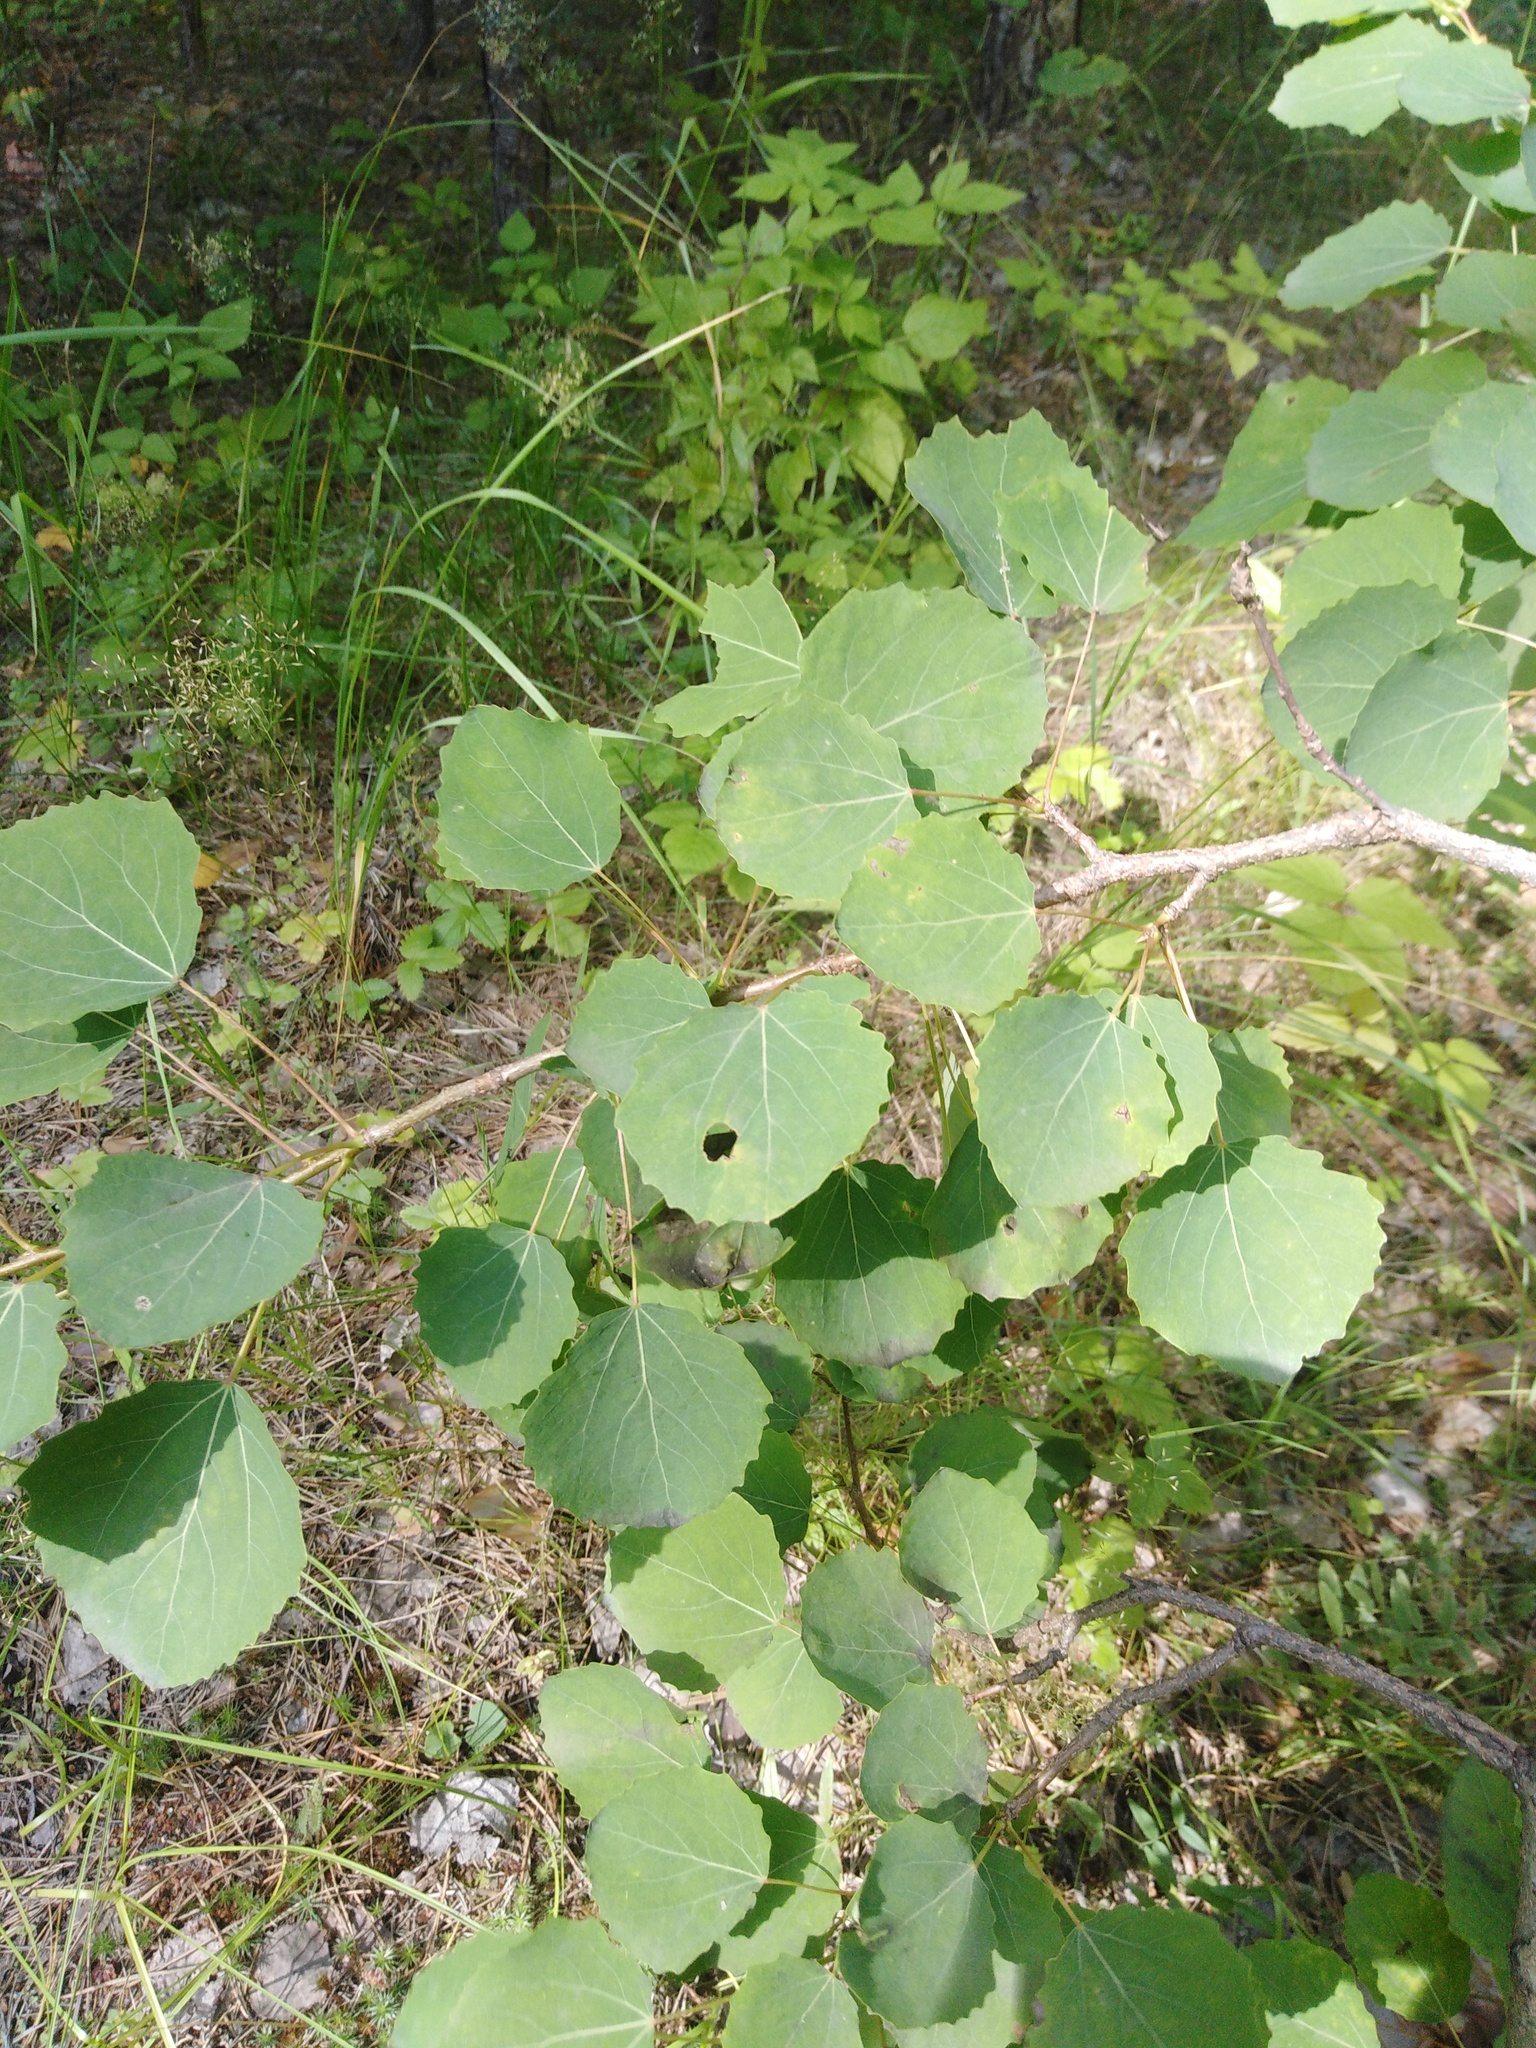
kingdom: Plantae
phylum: Tracheophyta
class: Magnoliopsida
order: Malpighiales
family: Salicaceae
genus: Populus
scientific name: Populus tremula
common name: European aspen
